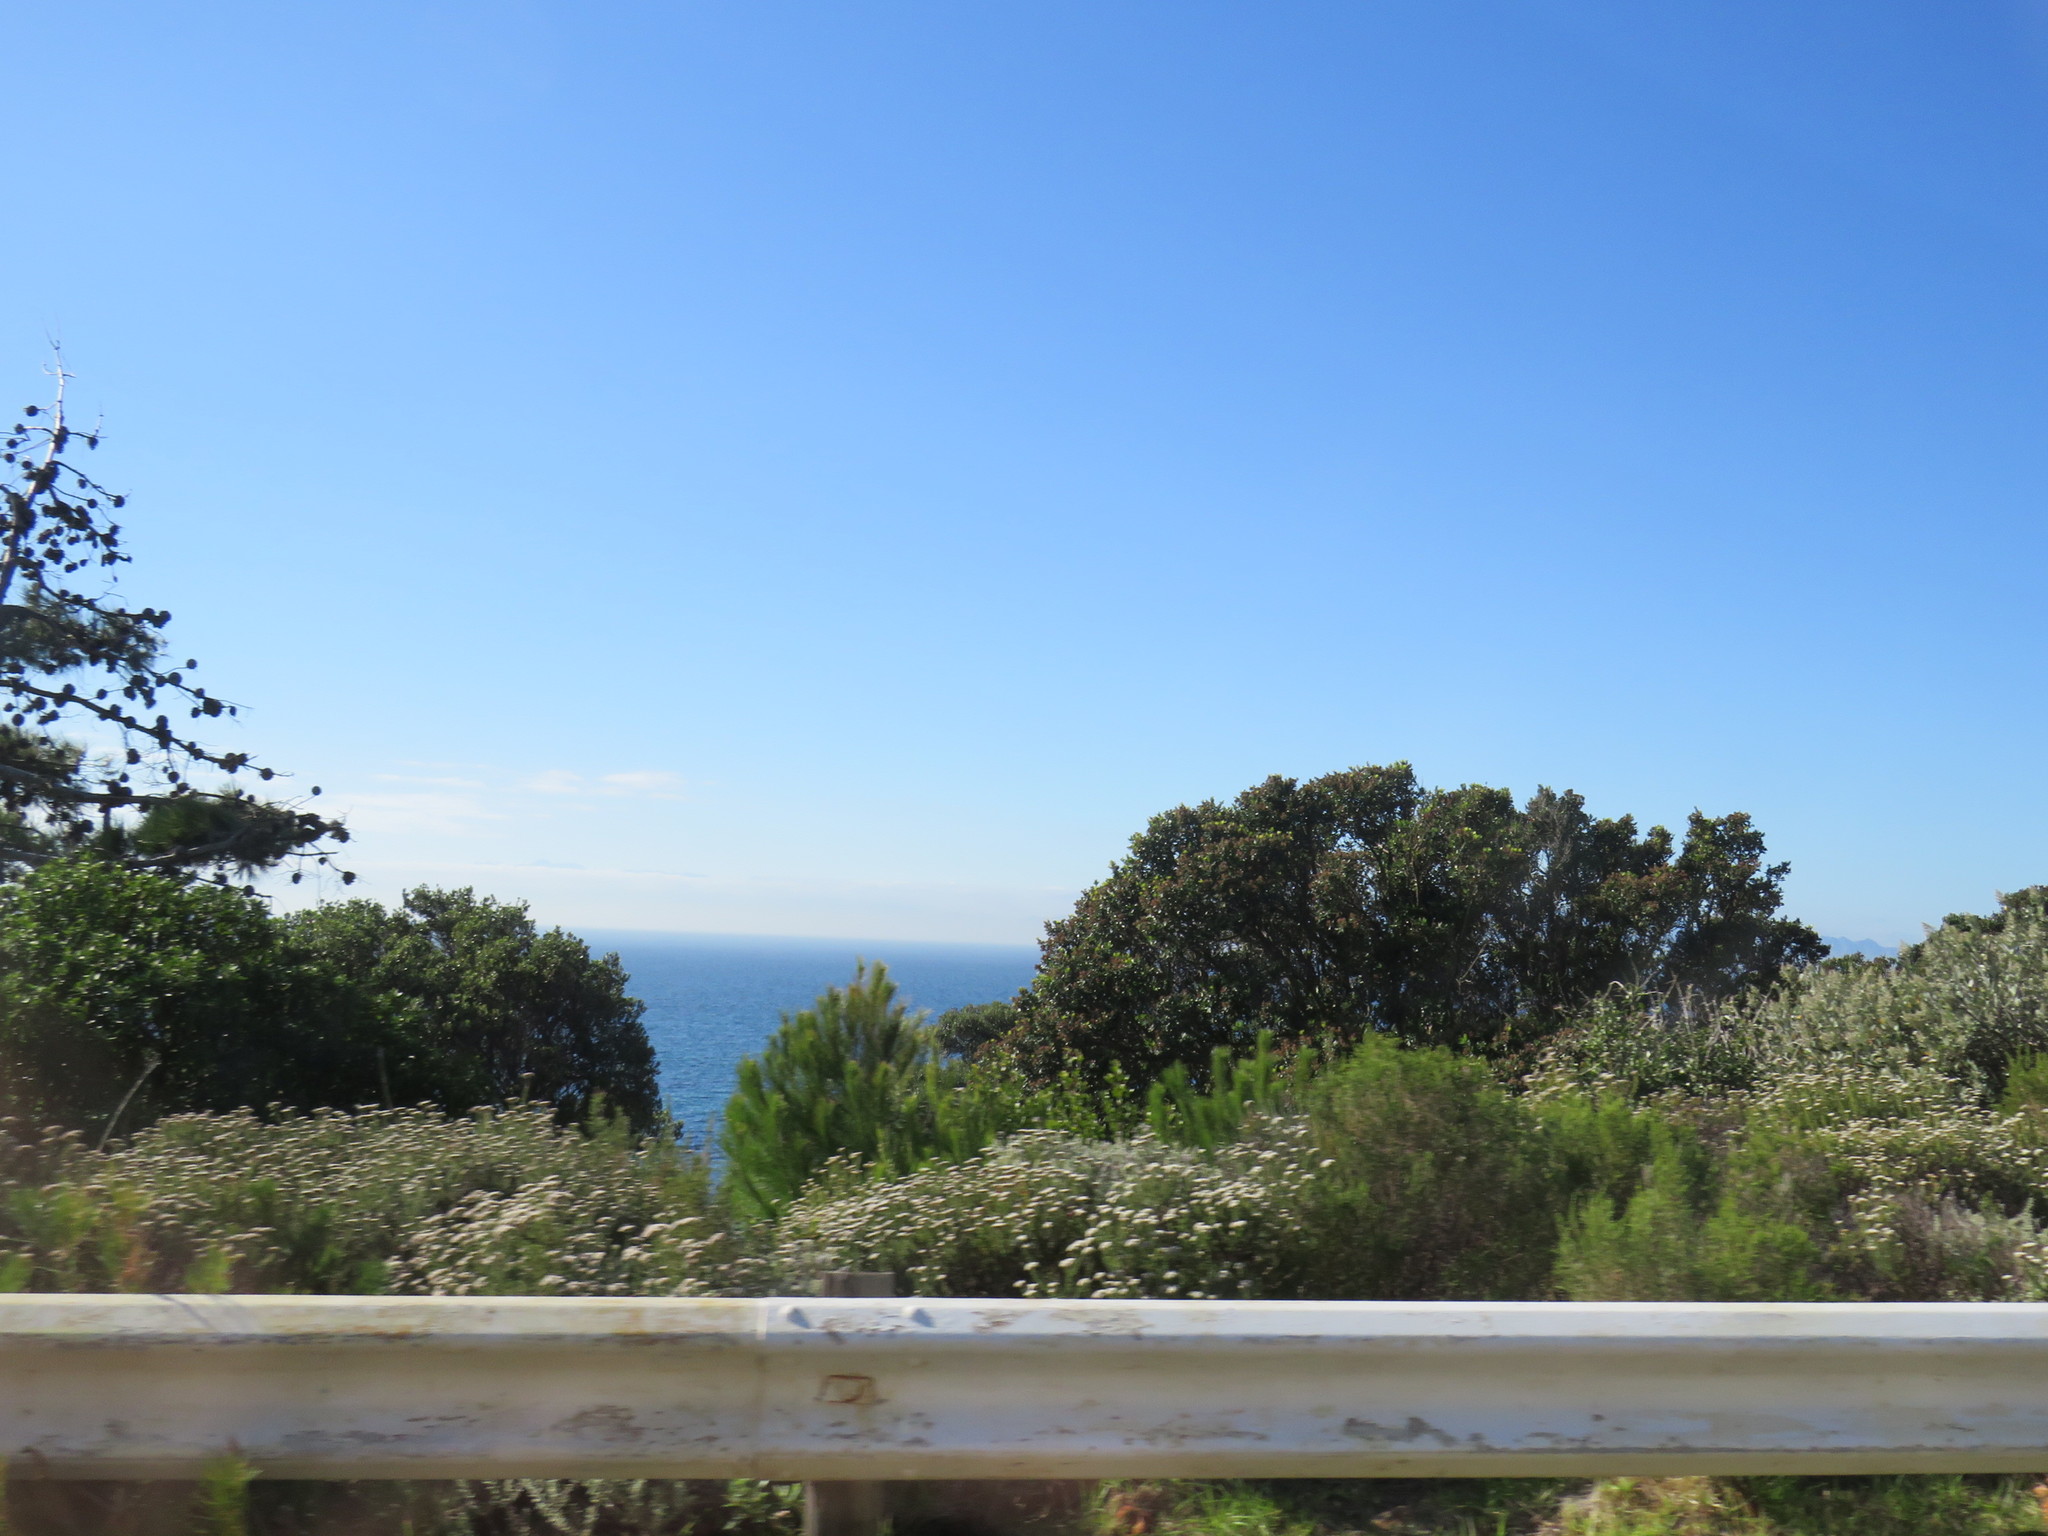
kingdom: Plantae
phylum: Tracheophyta
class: Pinopsida
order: Pinales
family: Pinaceae
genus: Pinus
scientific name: Pinus halepensis
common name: Aleppo pine
